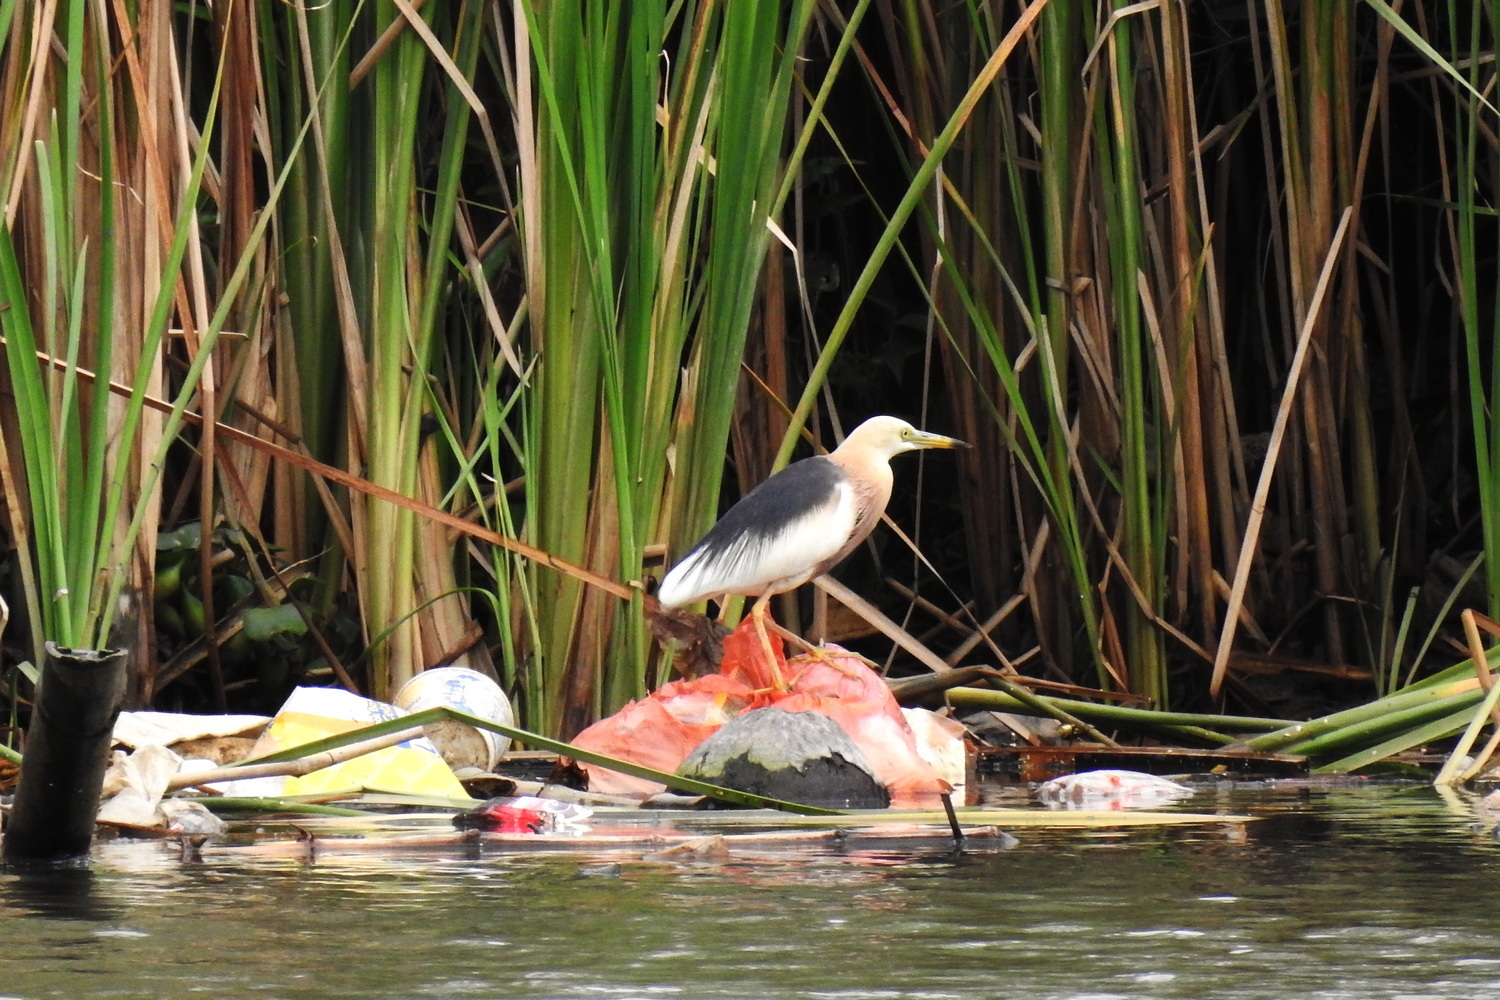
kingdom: Animalia
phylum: Chordata
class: Aves
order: Pelecaniformes
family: Ardeidae
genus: Ardeola
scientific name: Ardeola speciosa
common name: Javan pond heron
